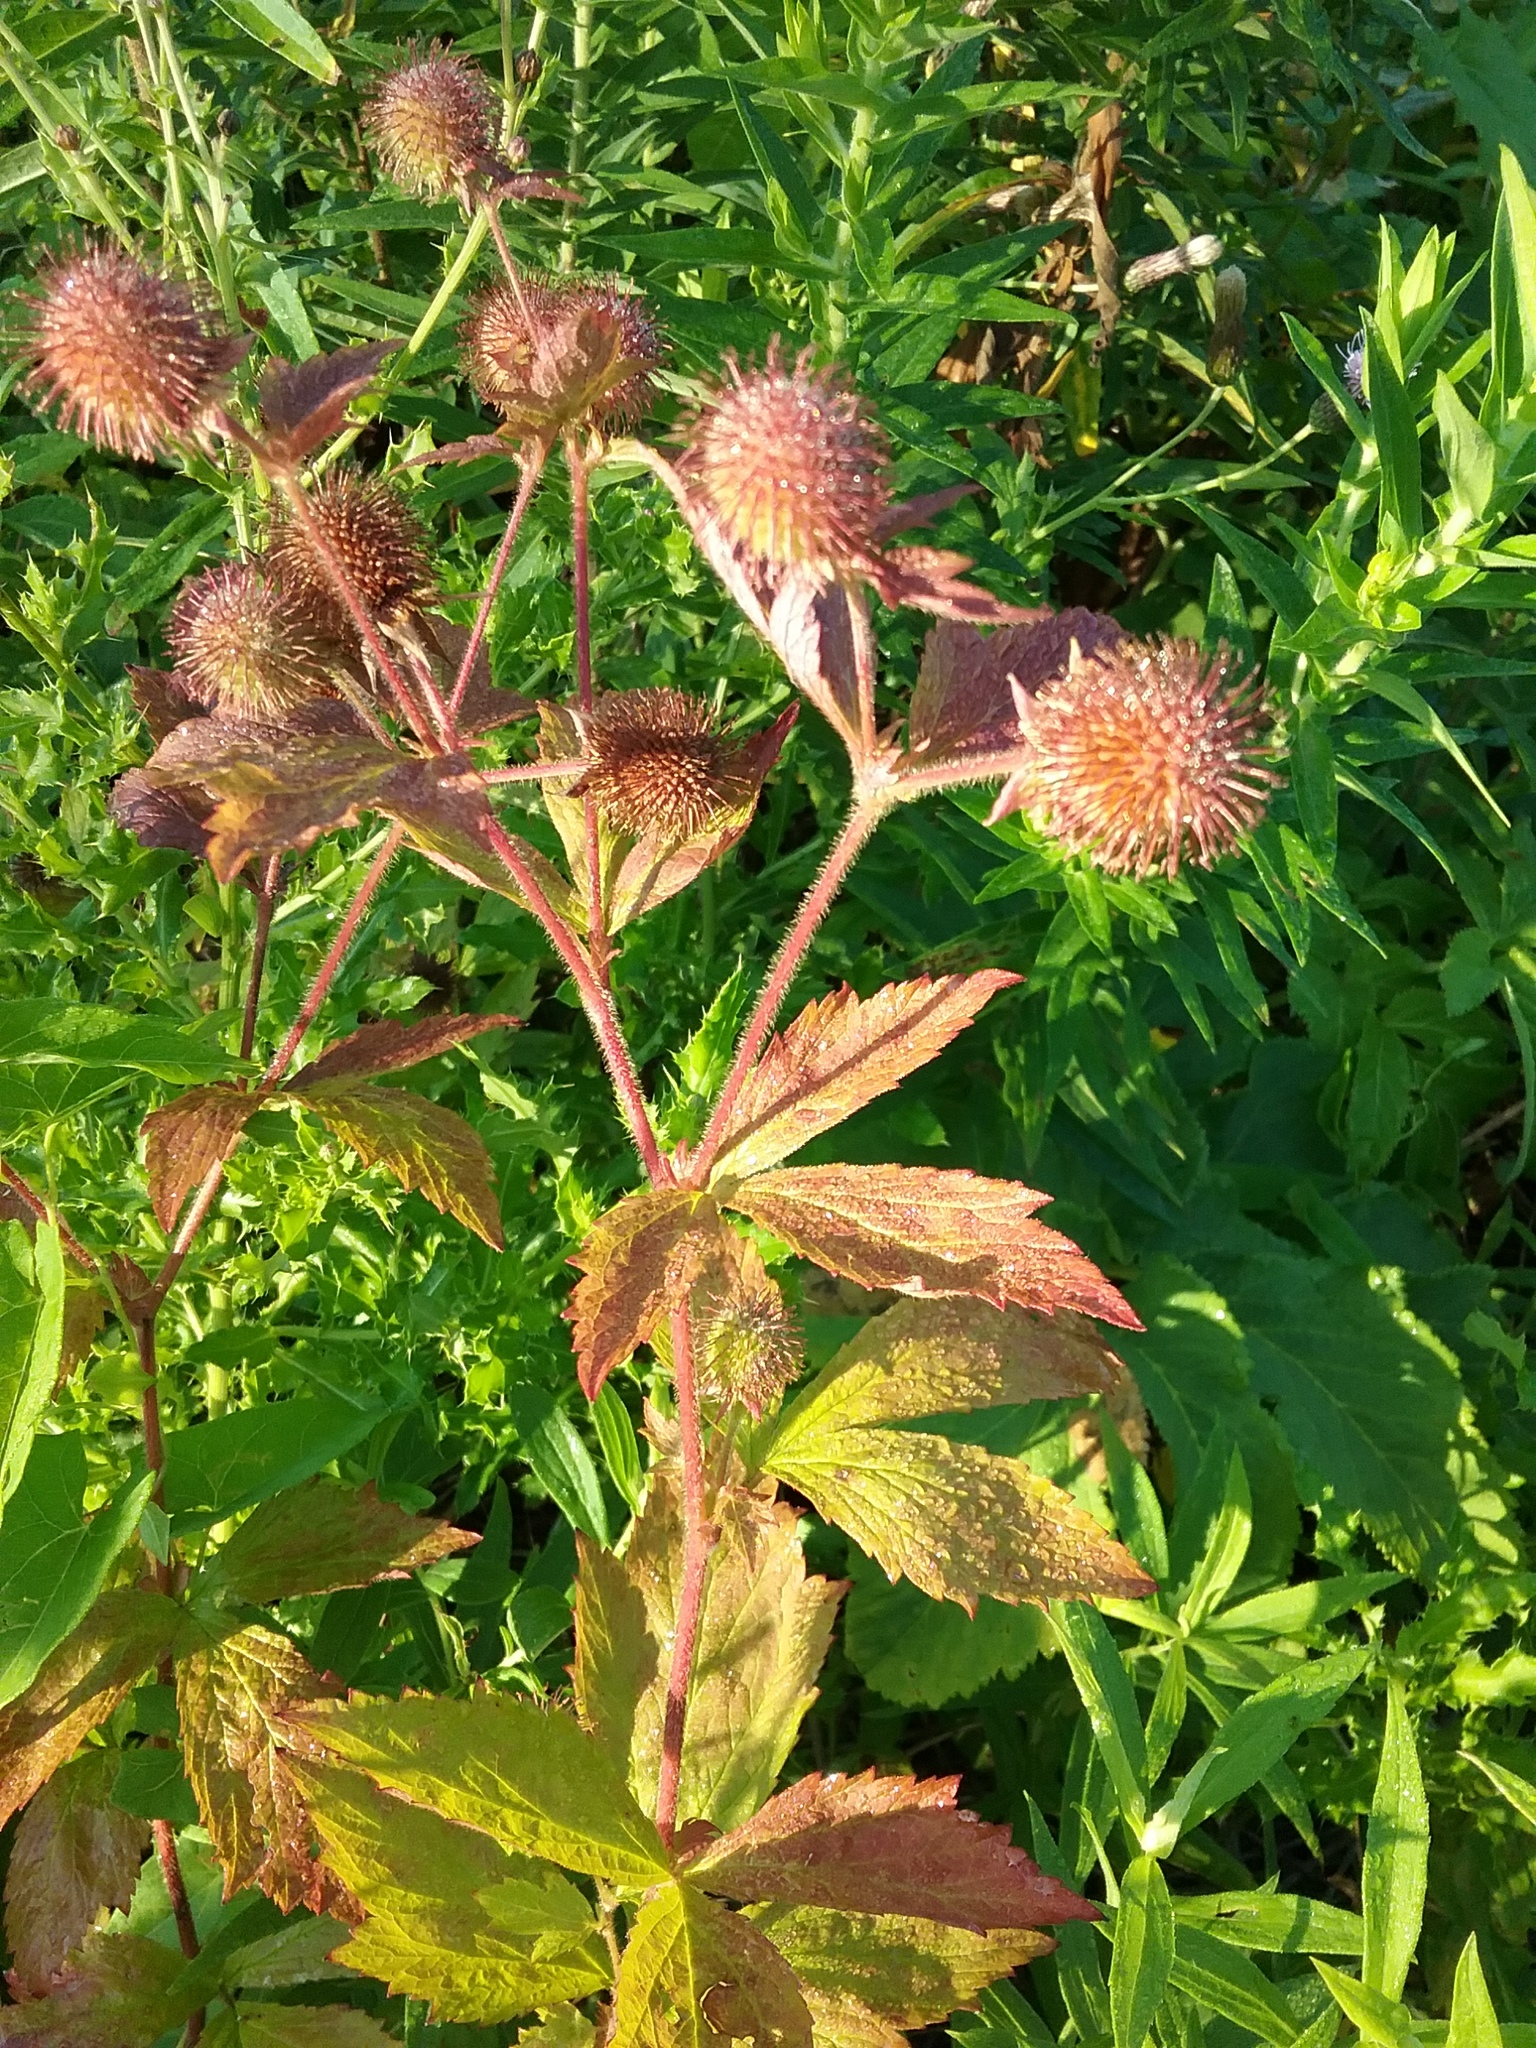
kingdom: Plantae
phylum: Tracheophyta
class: Magnoliopsida
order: Rosales
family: Rosaceae
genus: Geum
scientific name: Geum laciniatum
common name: Rough avens
